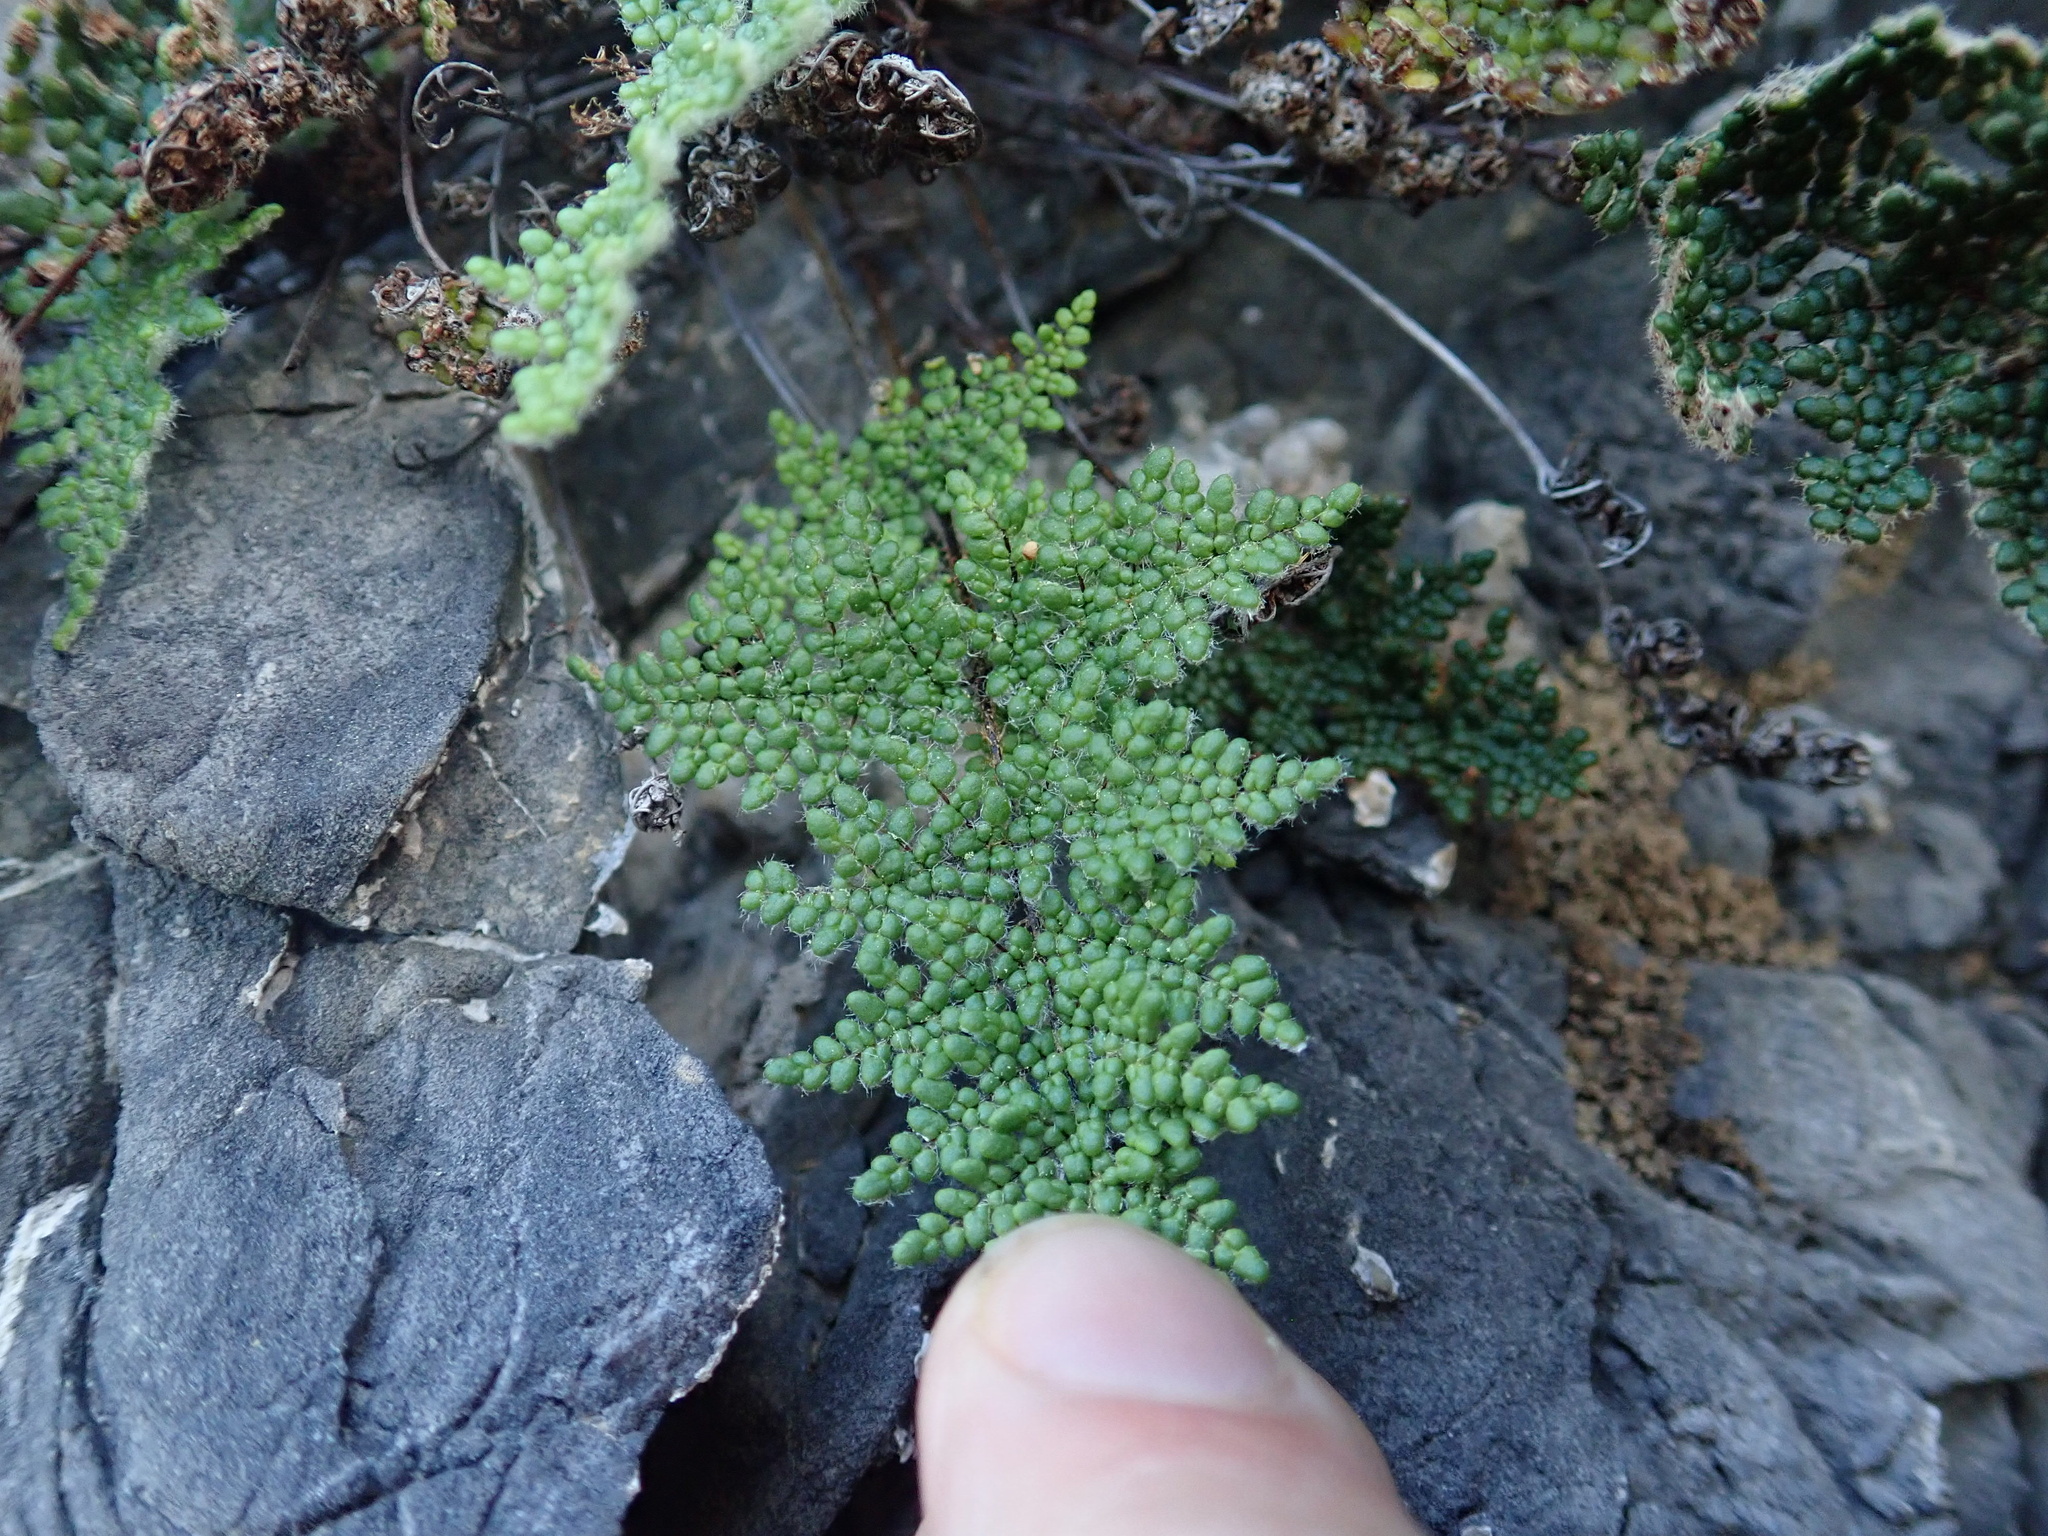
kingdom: Plantae
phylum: Tracheophyta
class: Polypodiopsida
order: Polypodiales
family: Pteridaceae
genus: Oeosporangium
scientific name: Oeosporangium persicum
